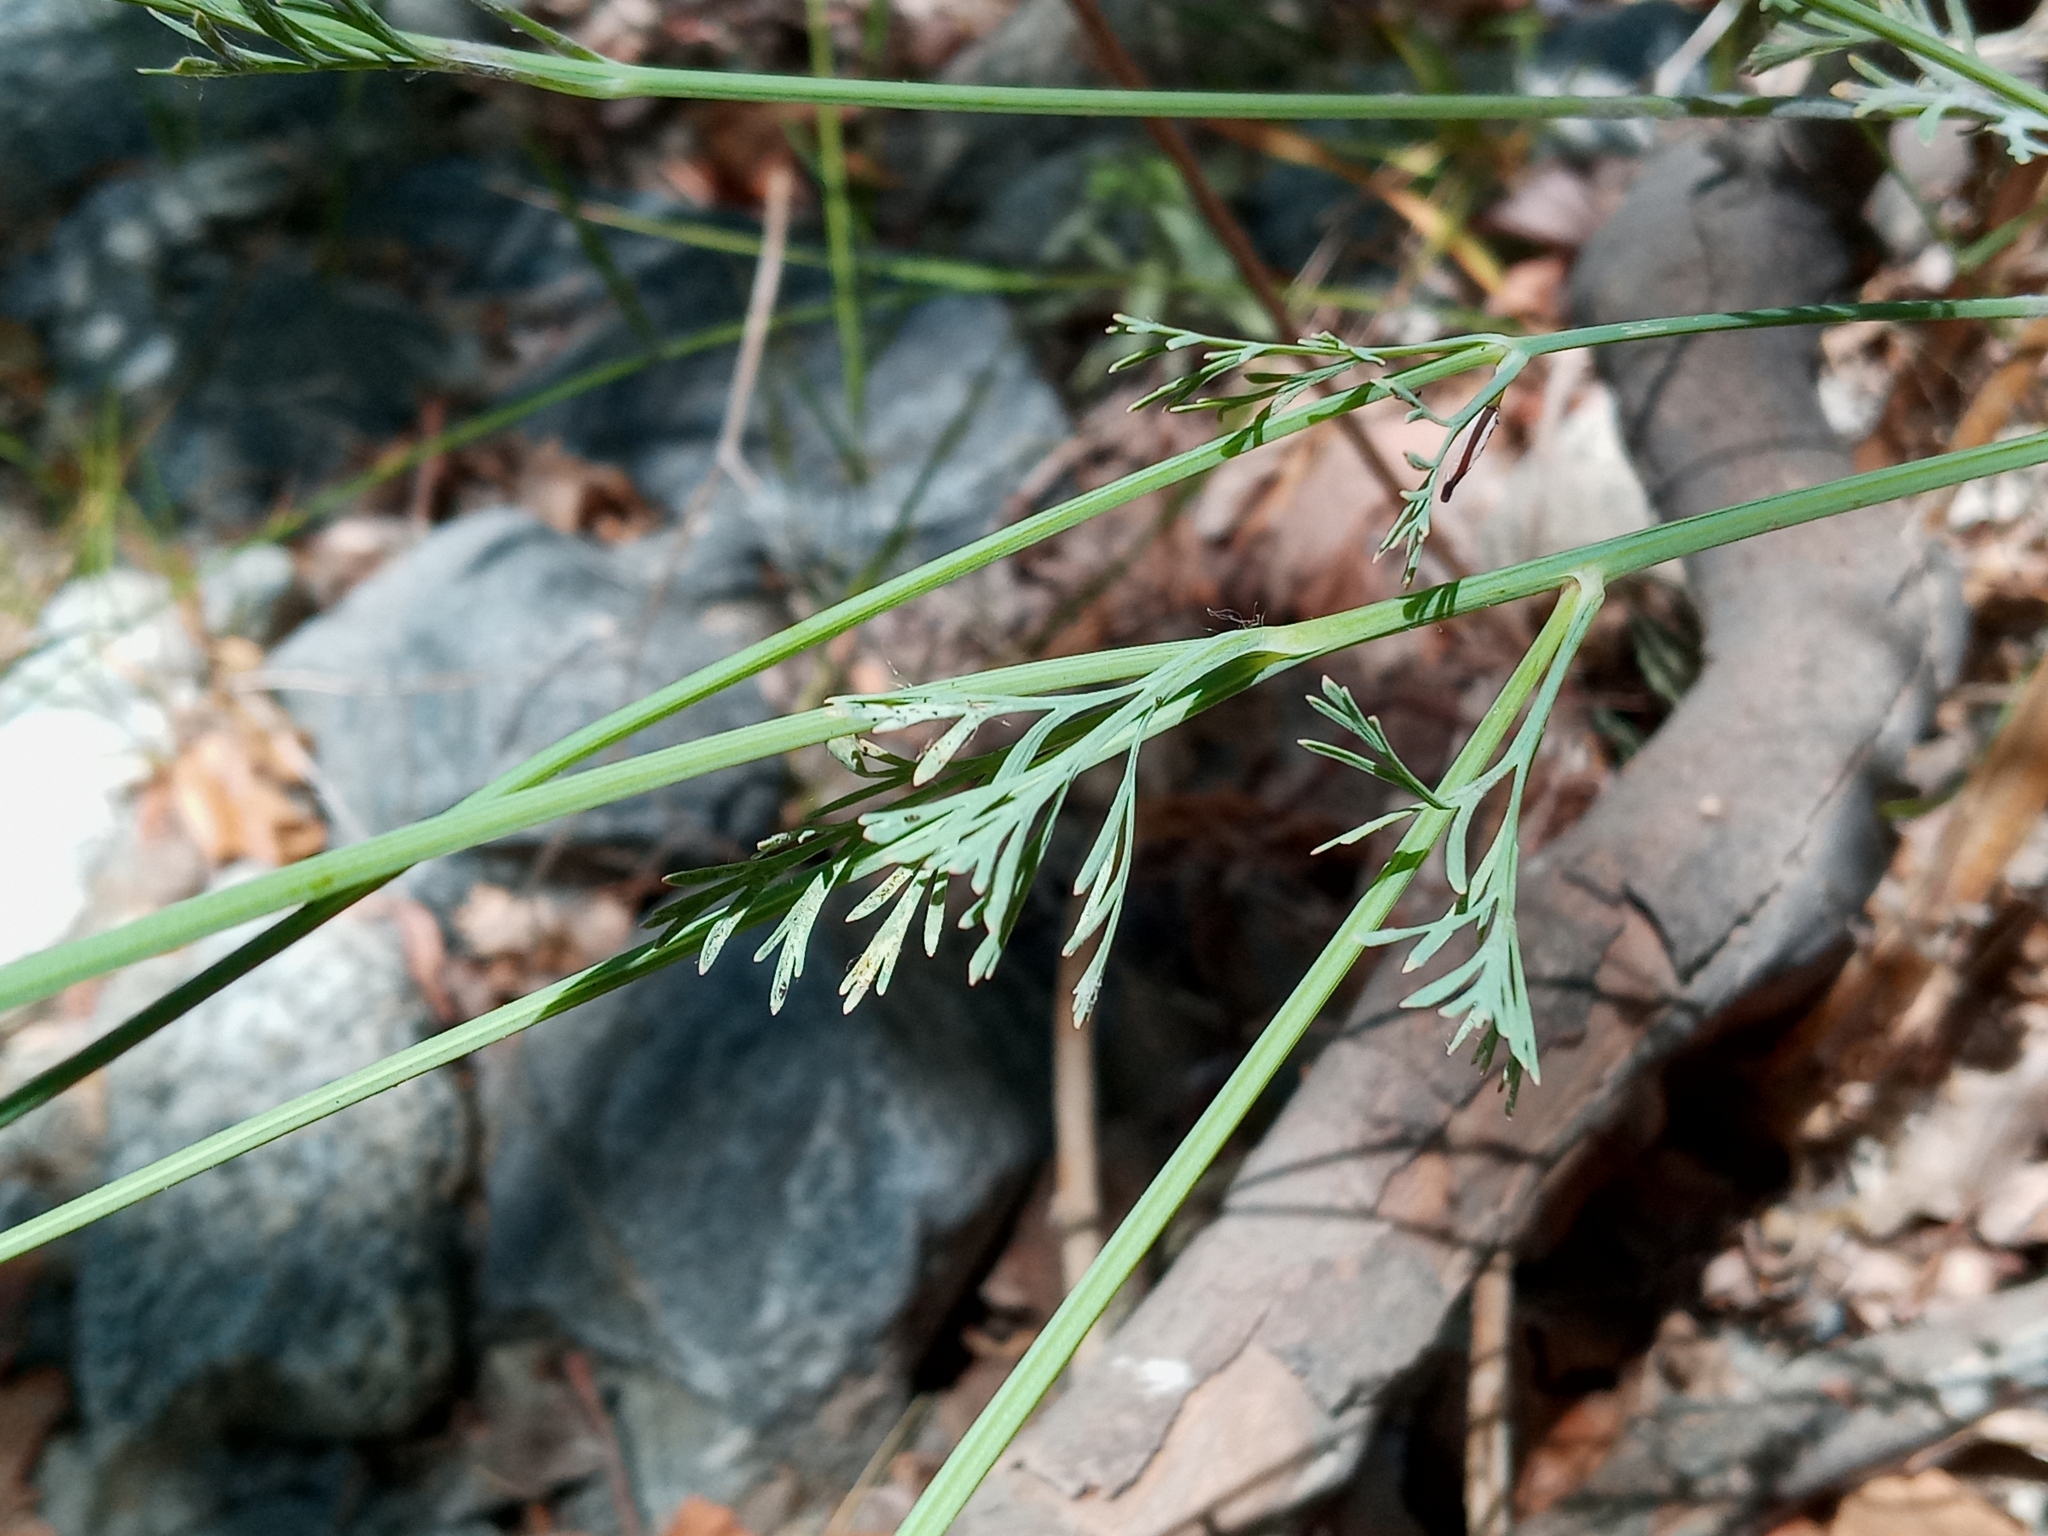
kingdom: Plantae
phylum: Tracheophyta
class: Magnoliopsida
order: Ranunculales
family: Papaveraceae
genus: Eschscholzia
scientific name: Eschscholzia californica
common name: California poppy
